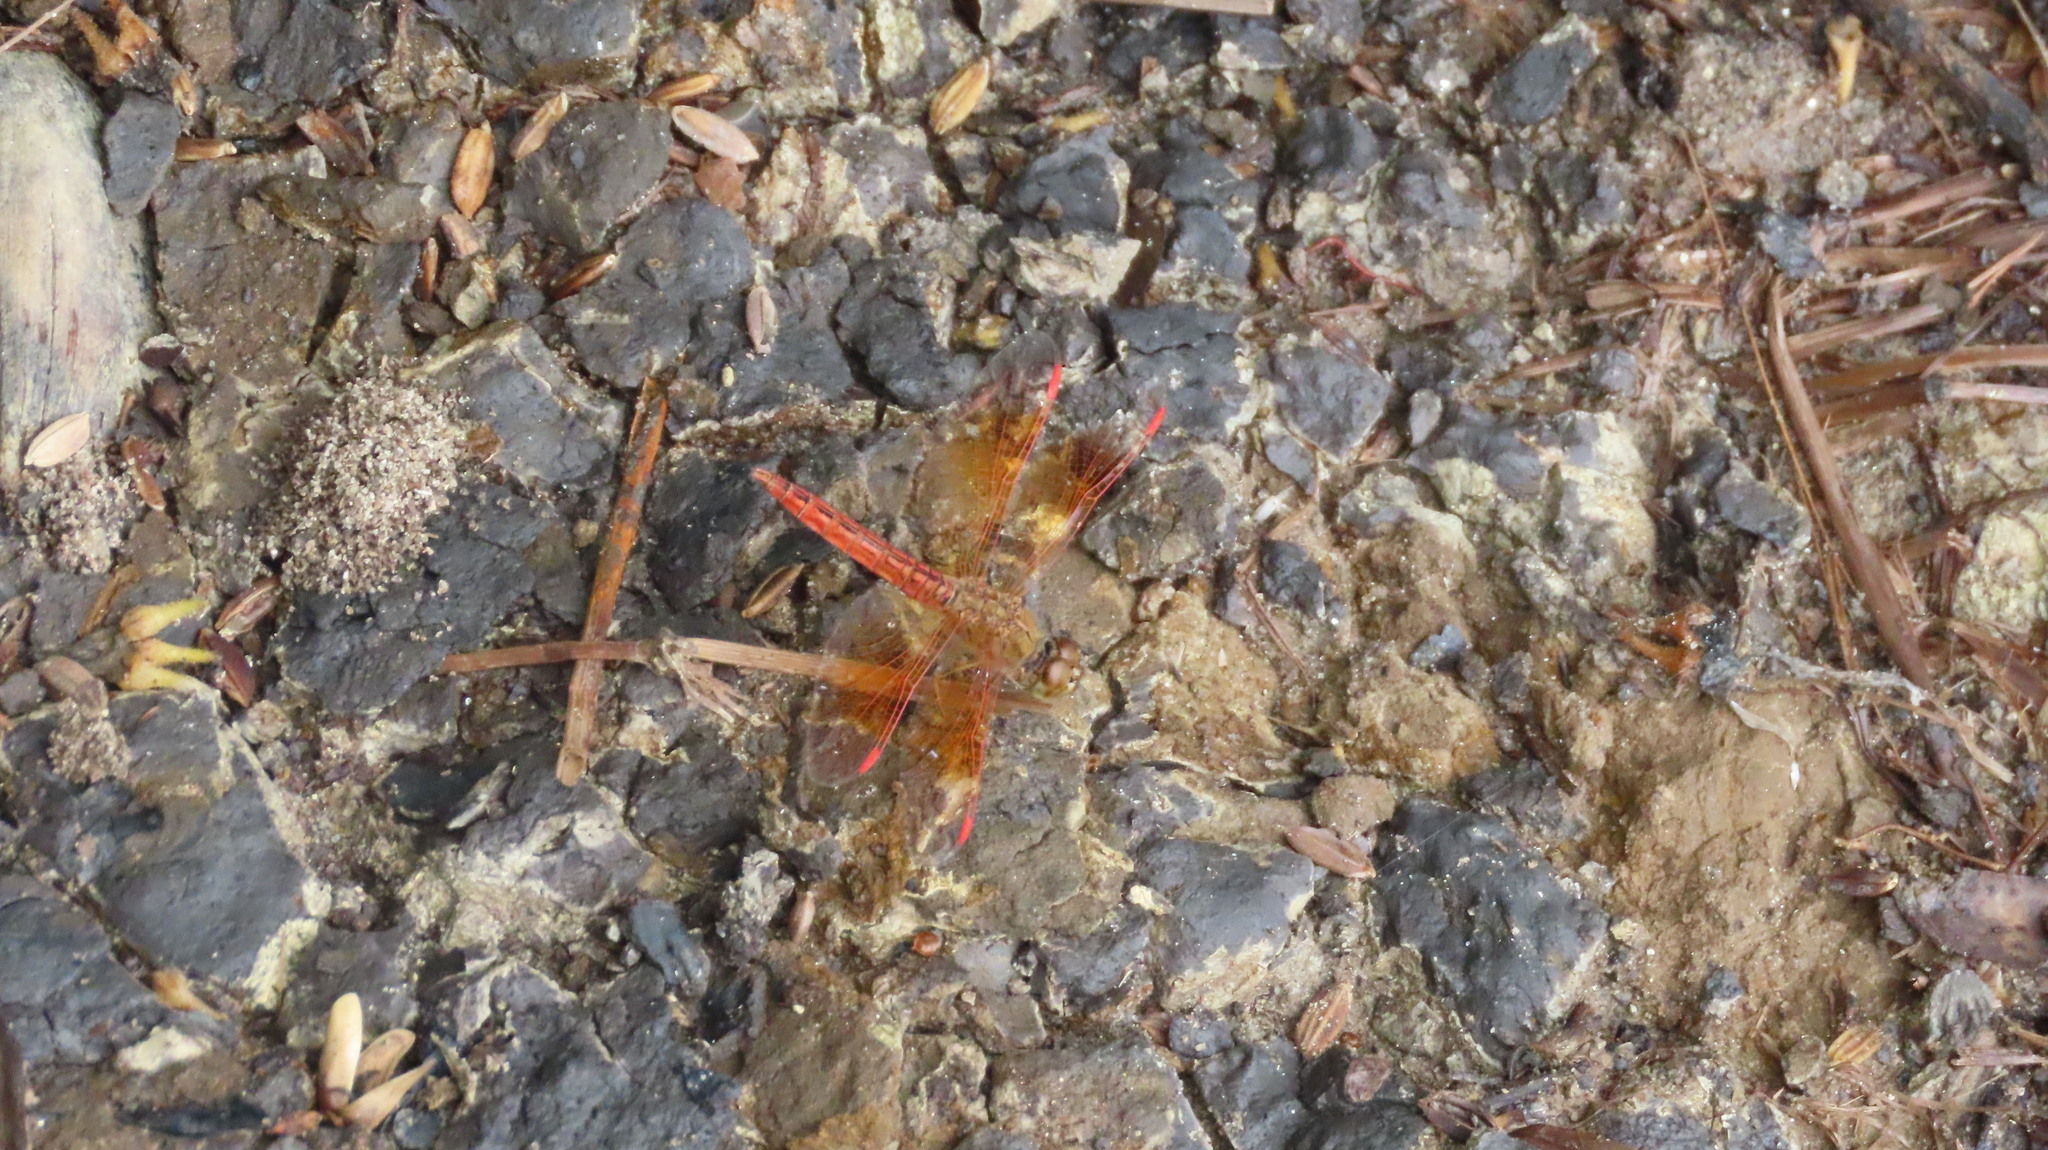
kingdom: Animalia
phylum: Arthropoda
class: Insecta
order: Odonata
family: Libellulidae
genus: Brachythemis
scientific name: Brachythemis contaminata
